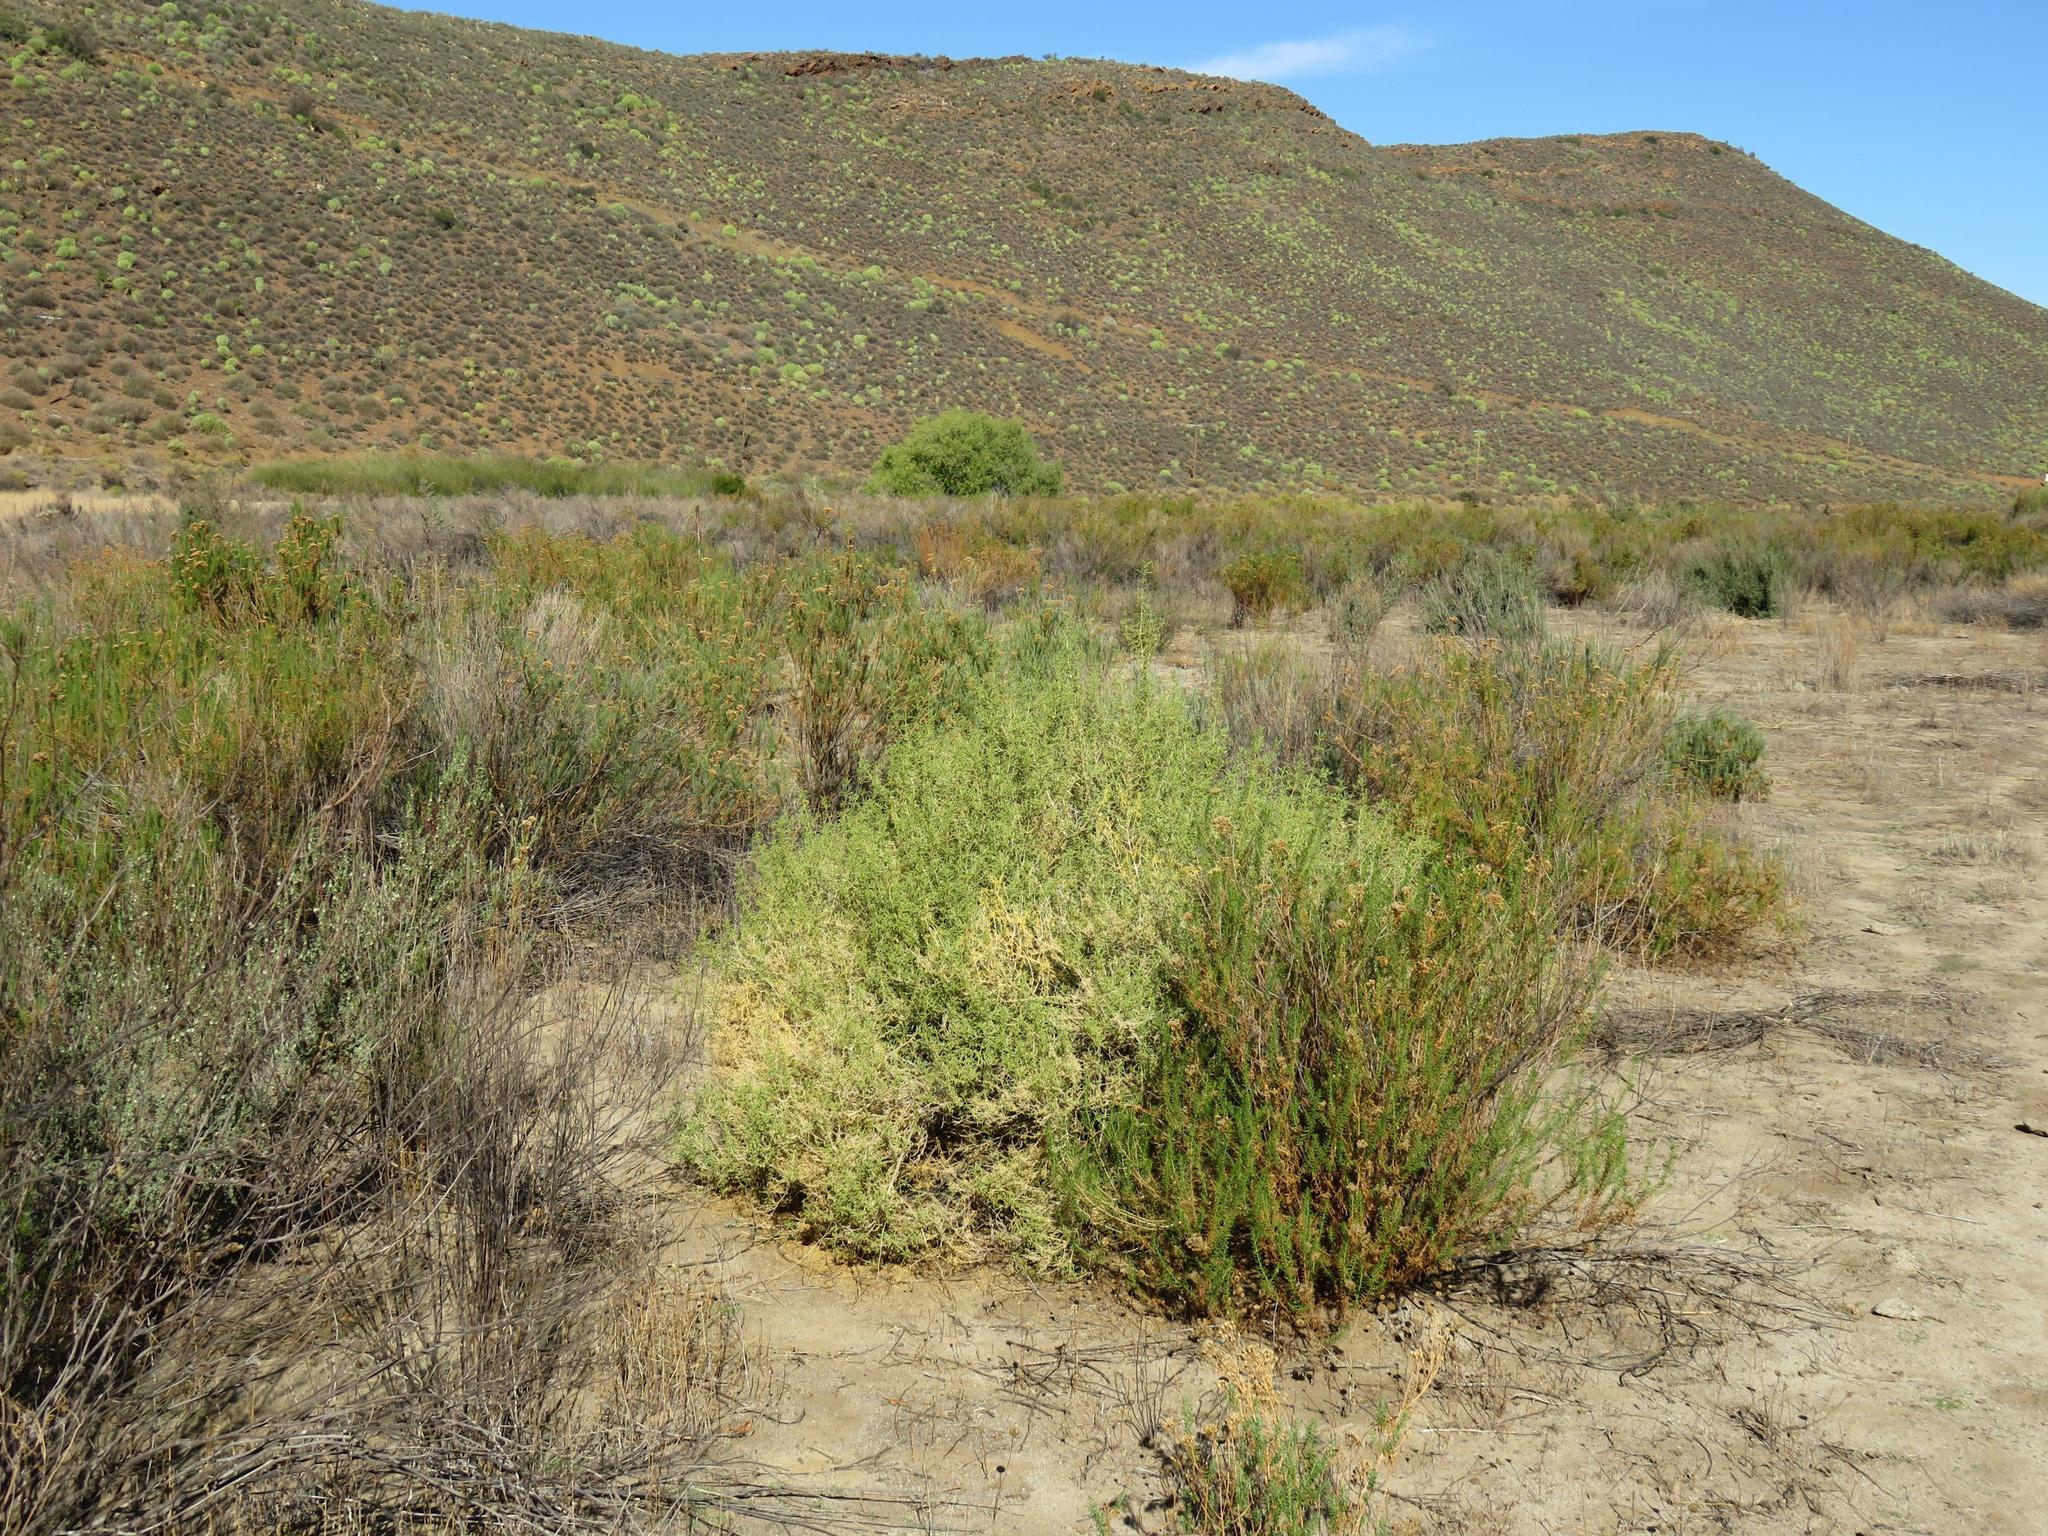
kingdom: Plantae
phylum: Tracheophyta
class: Magnoliopsida
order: Caryophyllales
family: Aizoaceae
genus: Aizoon
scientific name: Aizoon africanum
